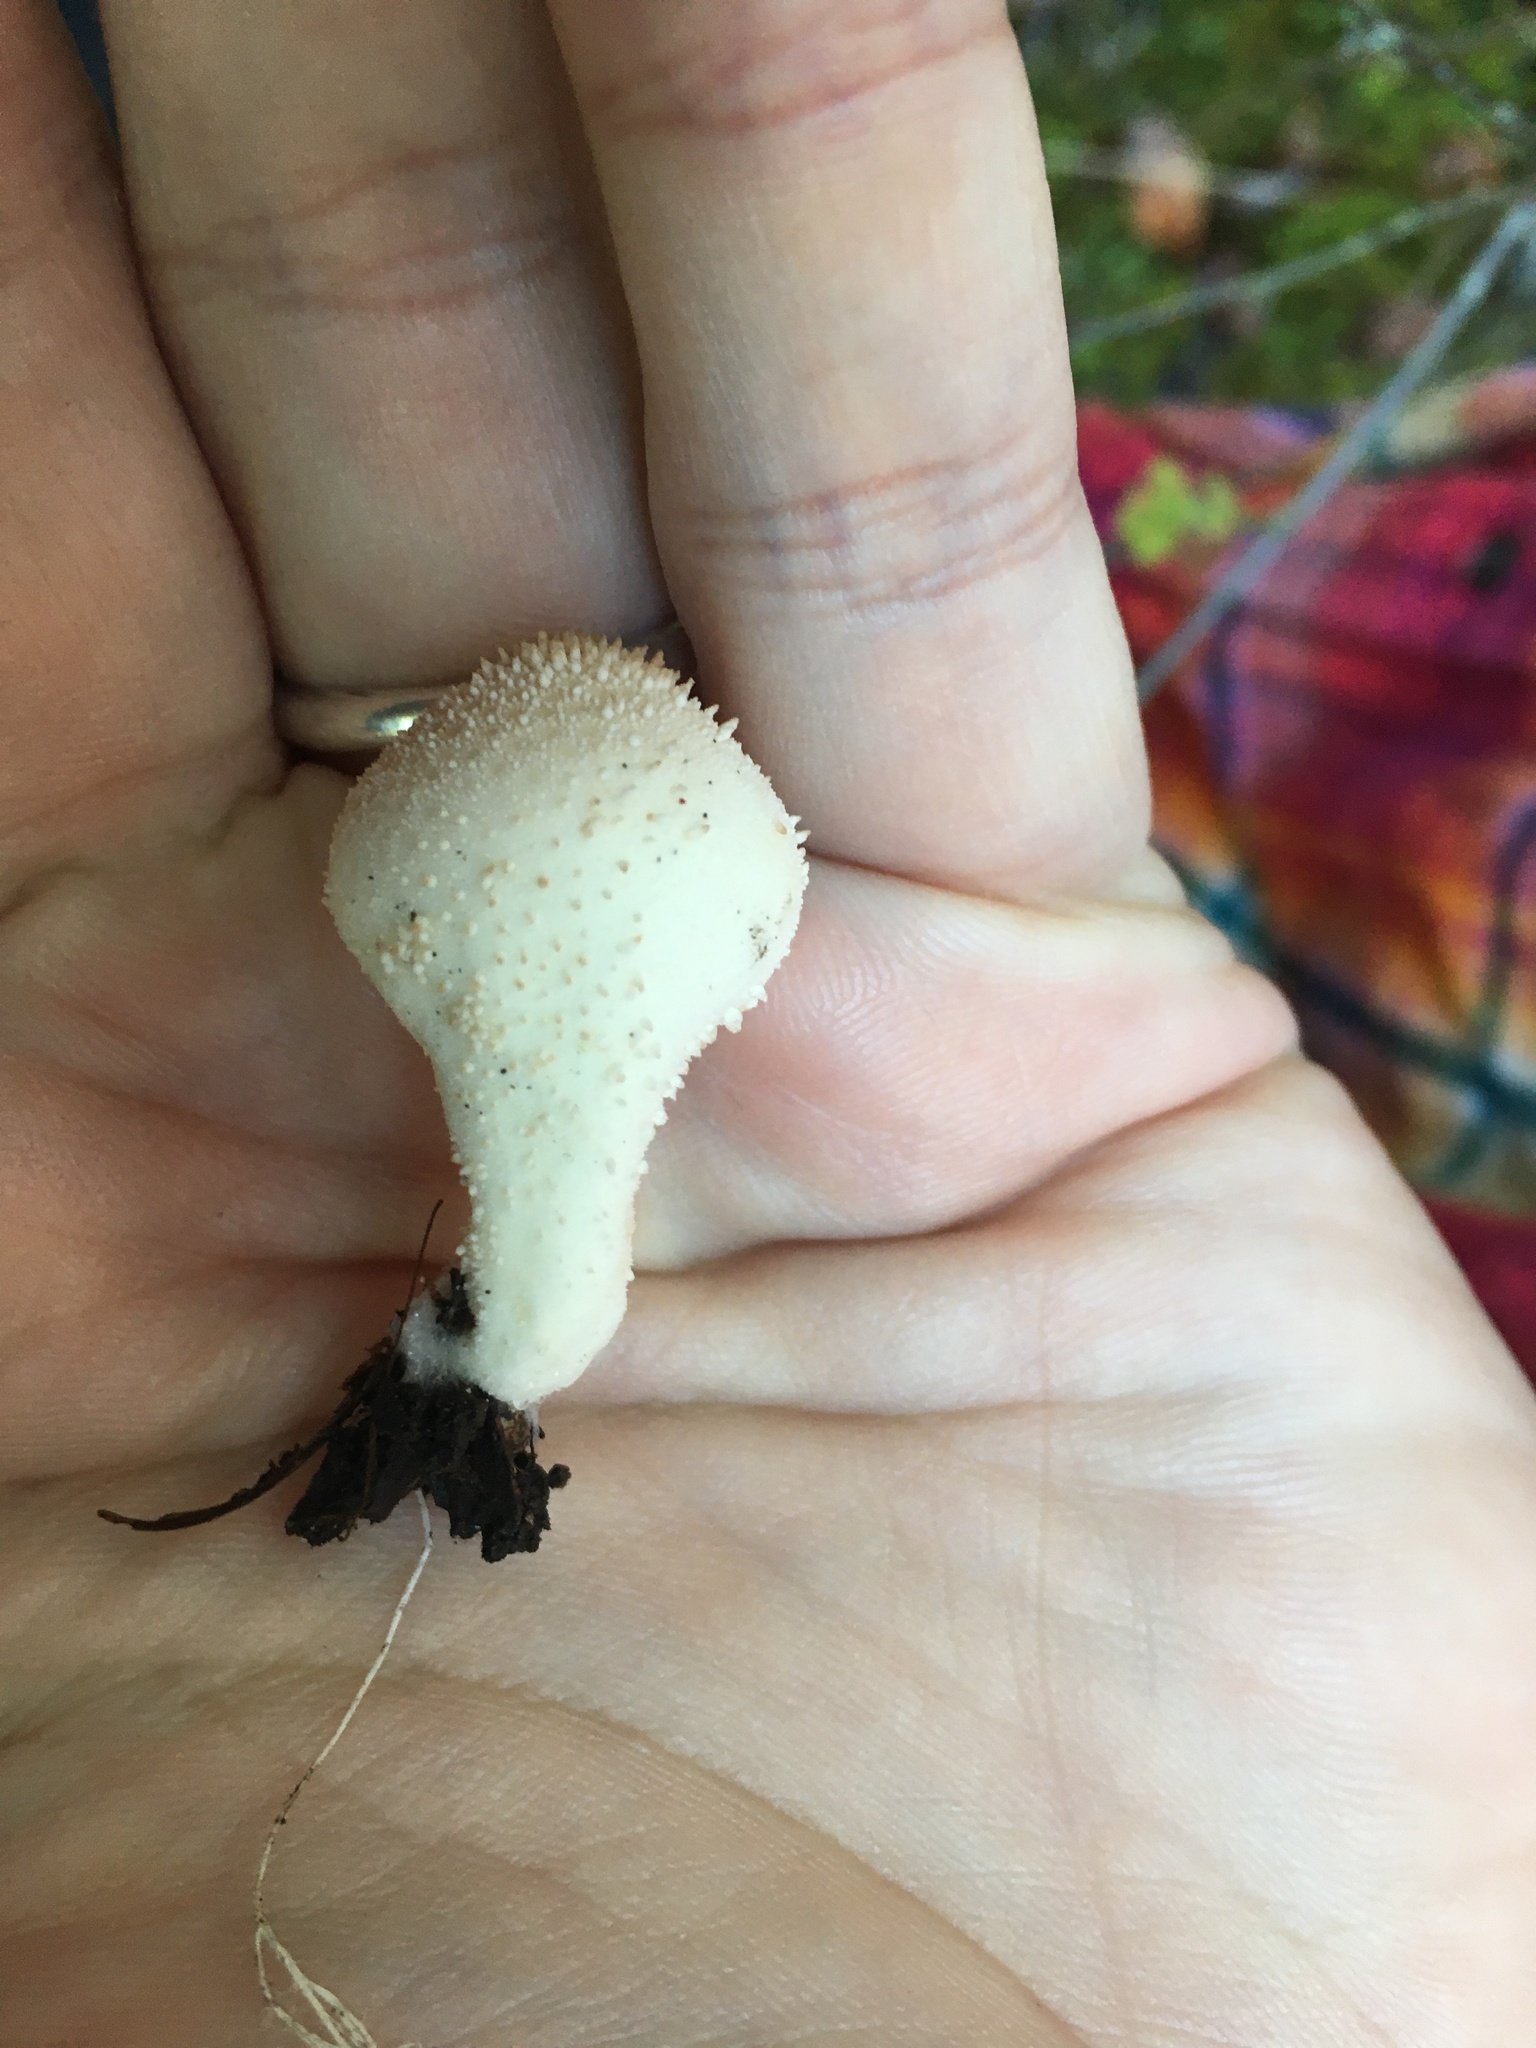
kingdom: Fungi
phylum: Basidiomycota
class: Agaricomycetes
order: Agaricales
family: Lycoperdaceae
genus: Lycoperdon
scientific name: Lycoperdon perlatum
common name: Common puffball
